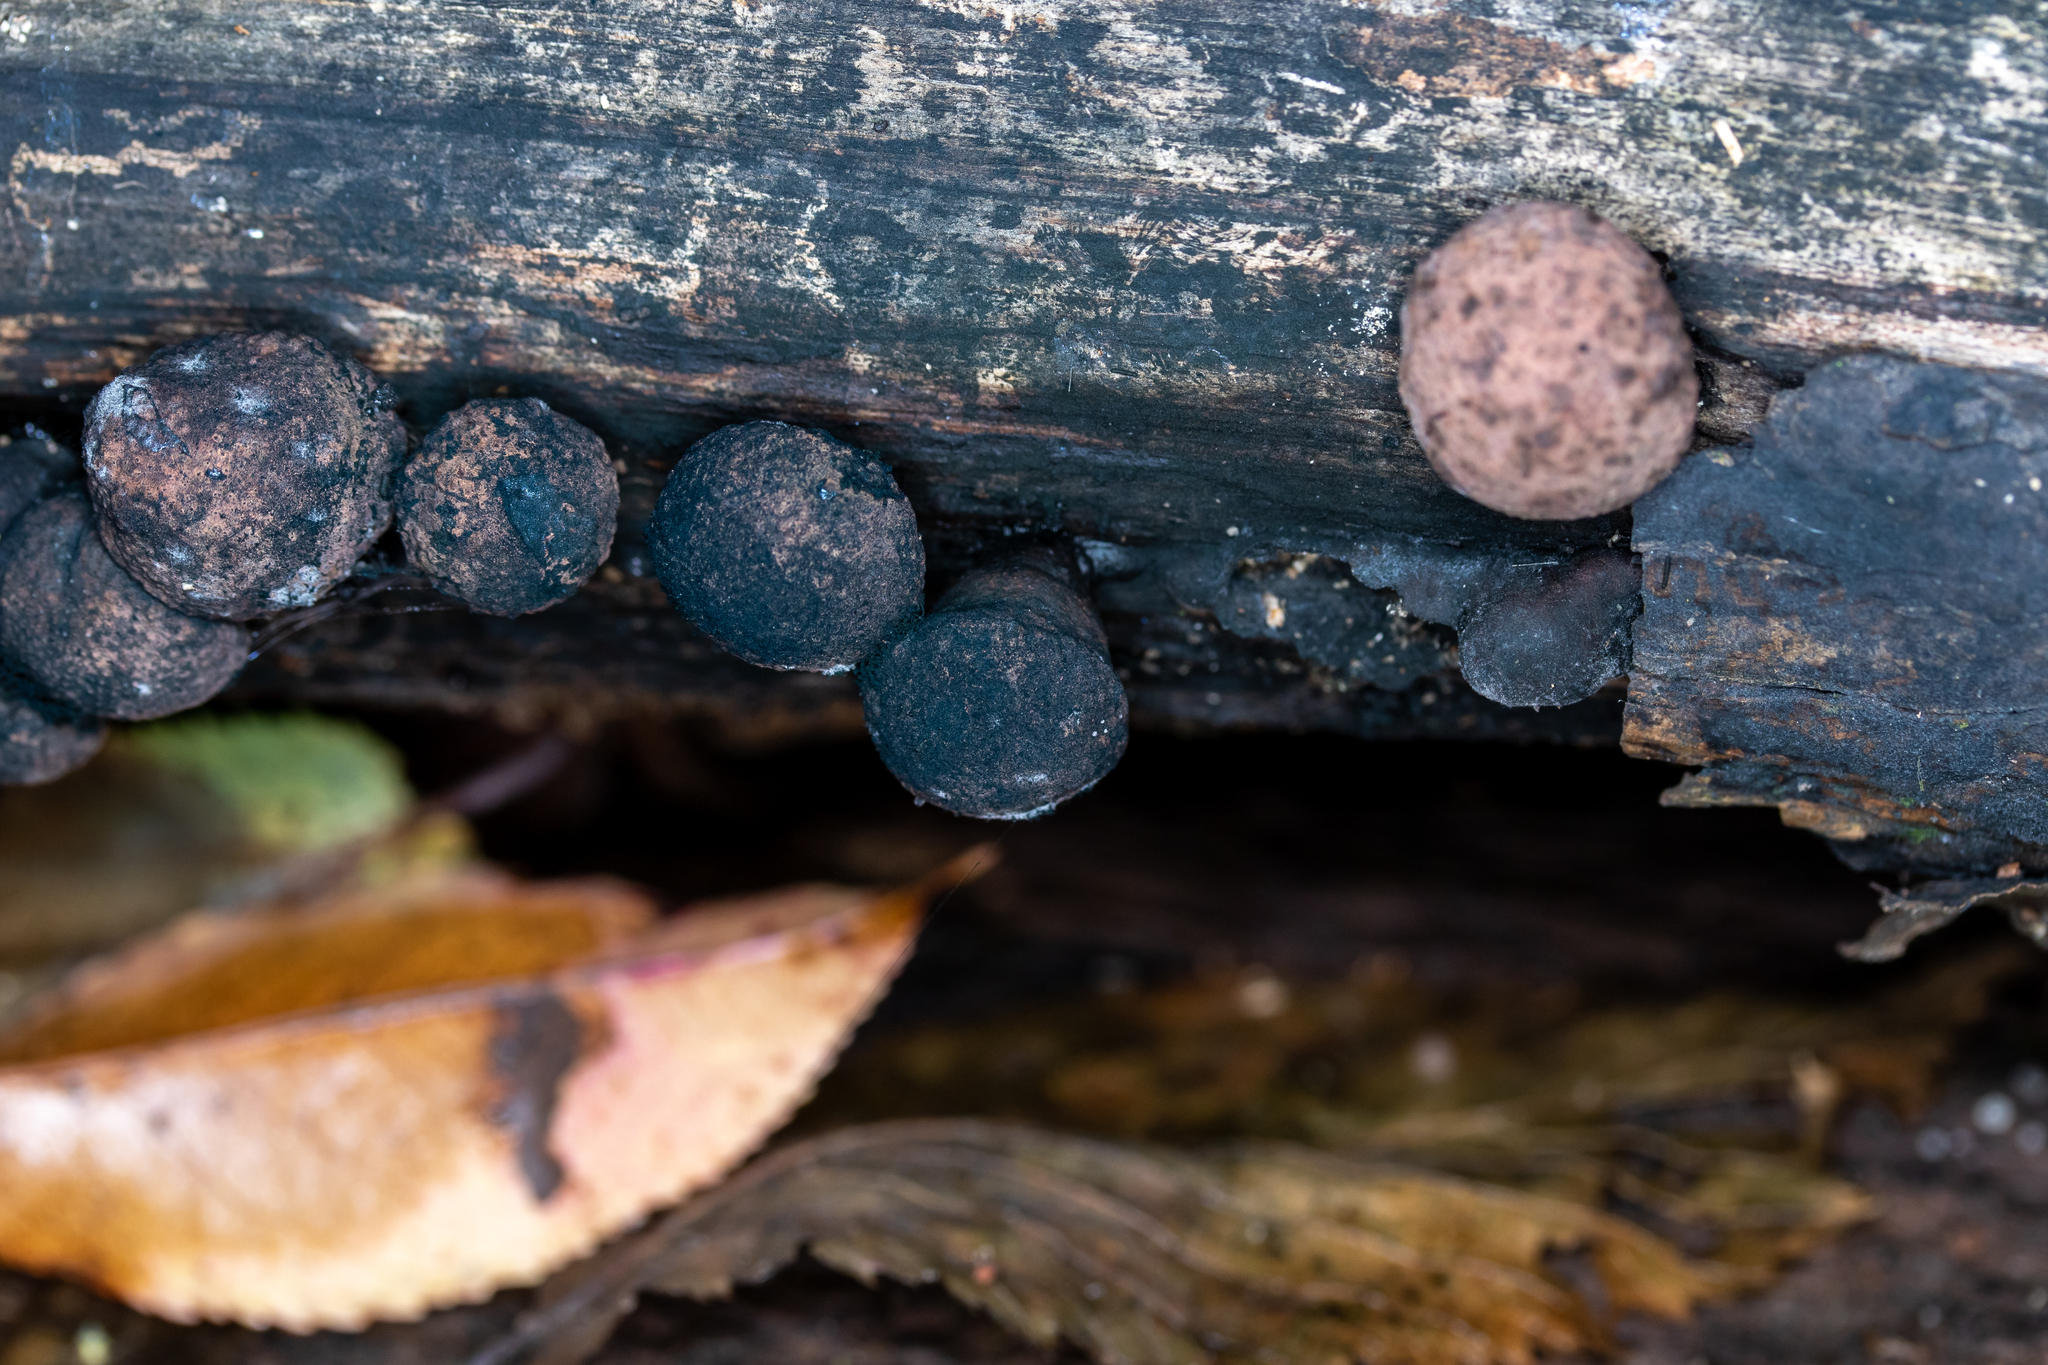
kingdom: Fungi
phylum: Ascomycota
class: Sordariomycetes
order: Xylariales
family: Hypoxylaceae
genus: Daldinia
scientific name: Daldinia childiae
